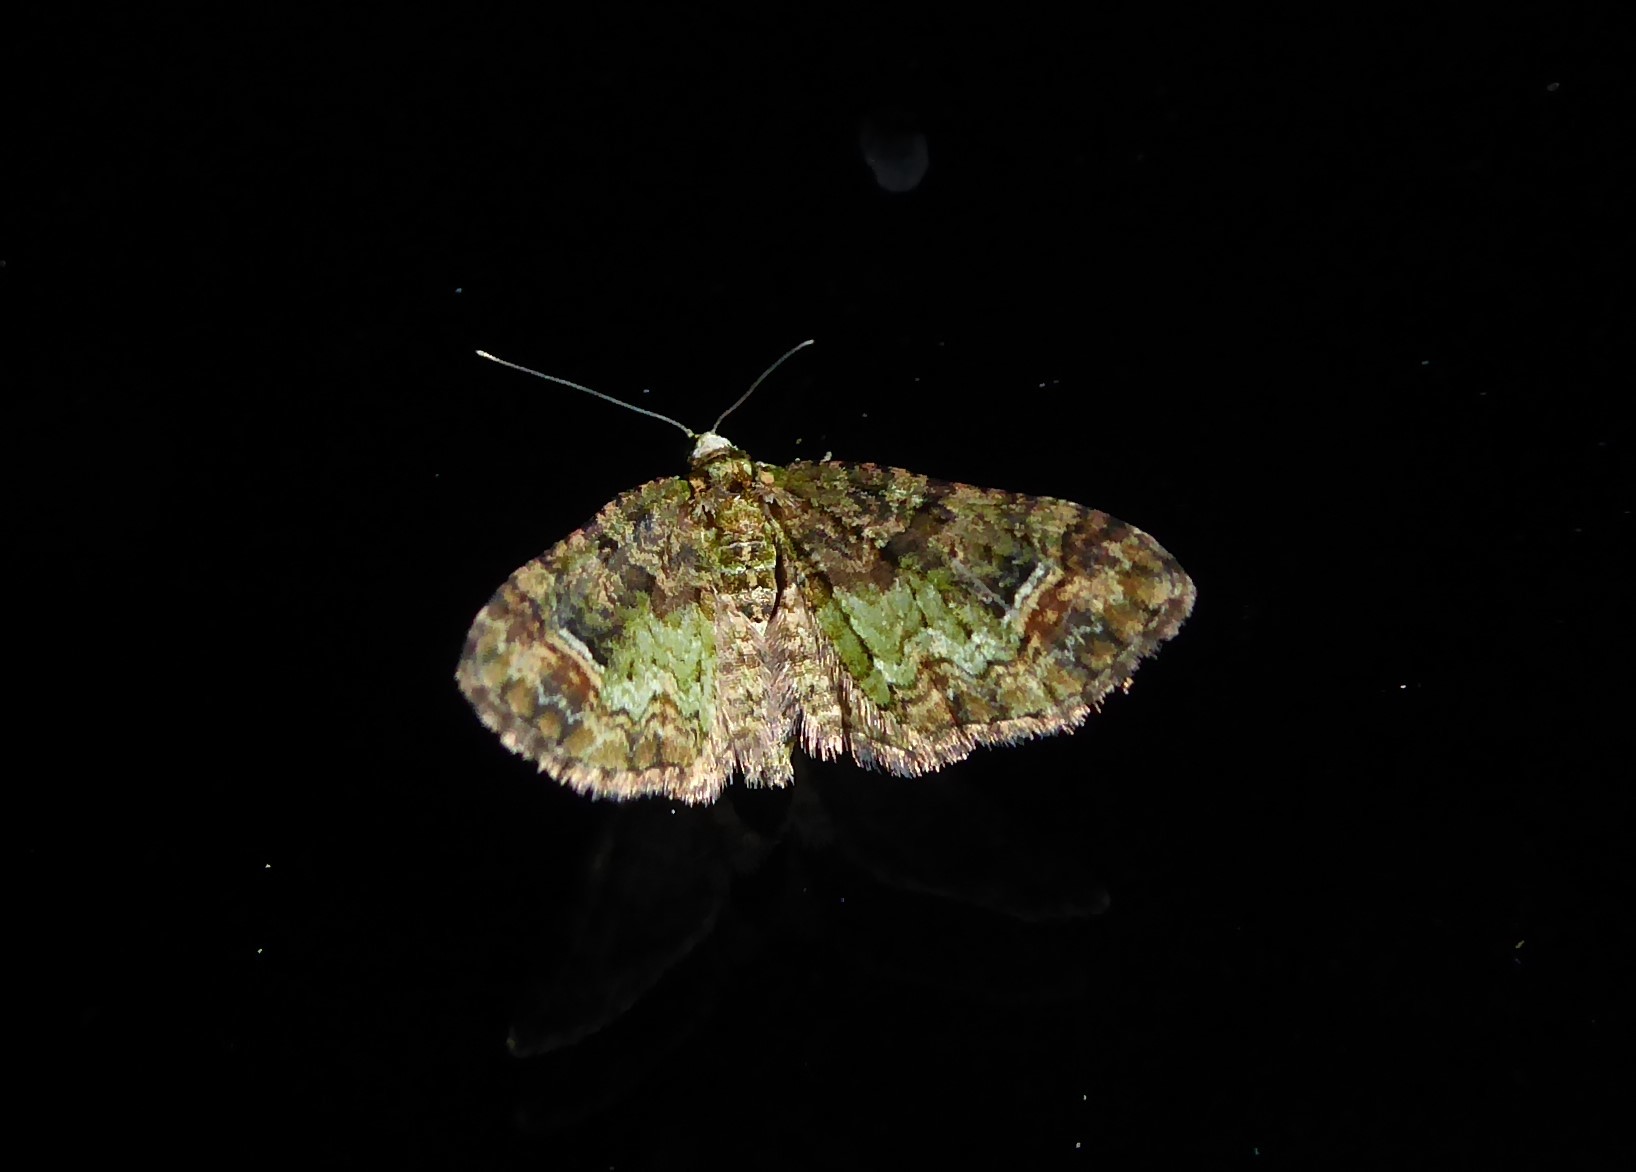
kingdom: Animalia
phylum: Arthropoda
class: Insecta
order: Lepidoptera
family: Geometridae
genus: Idaea
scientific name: Idaea mutanda
